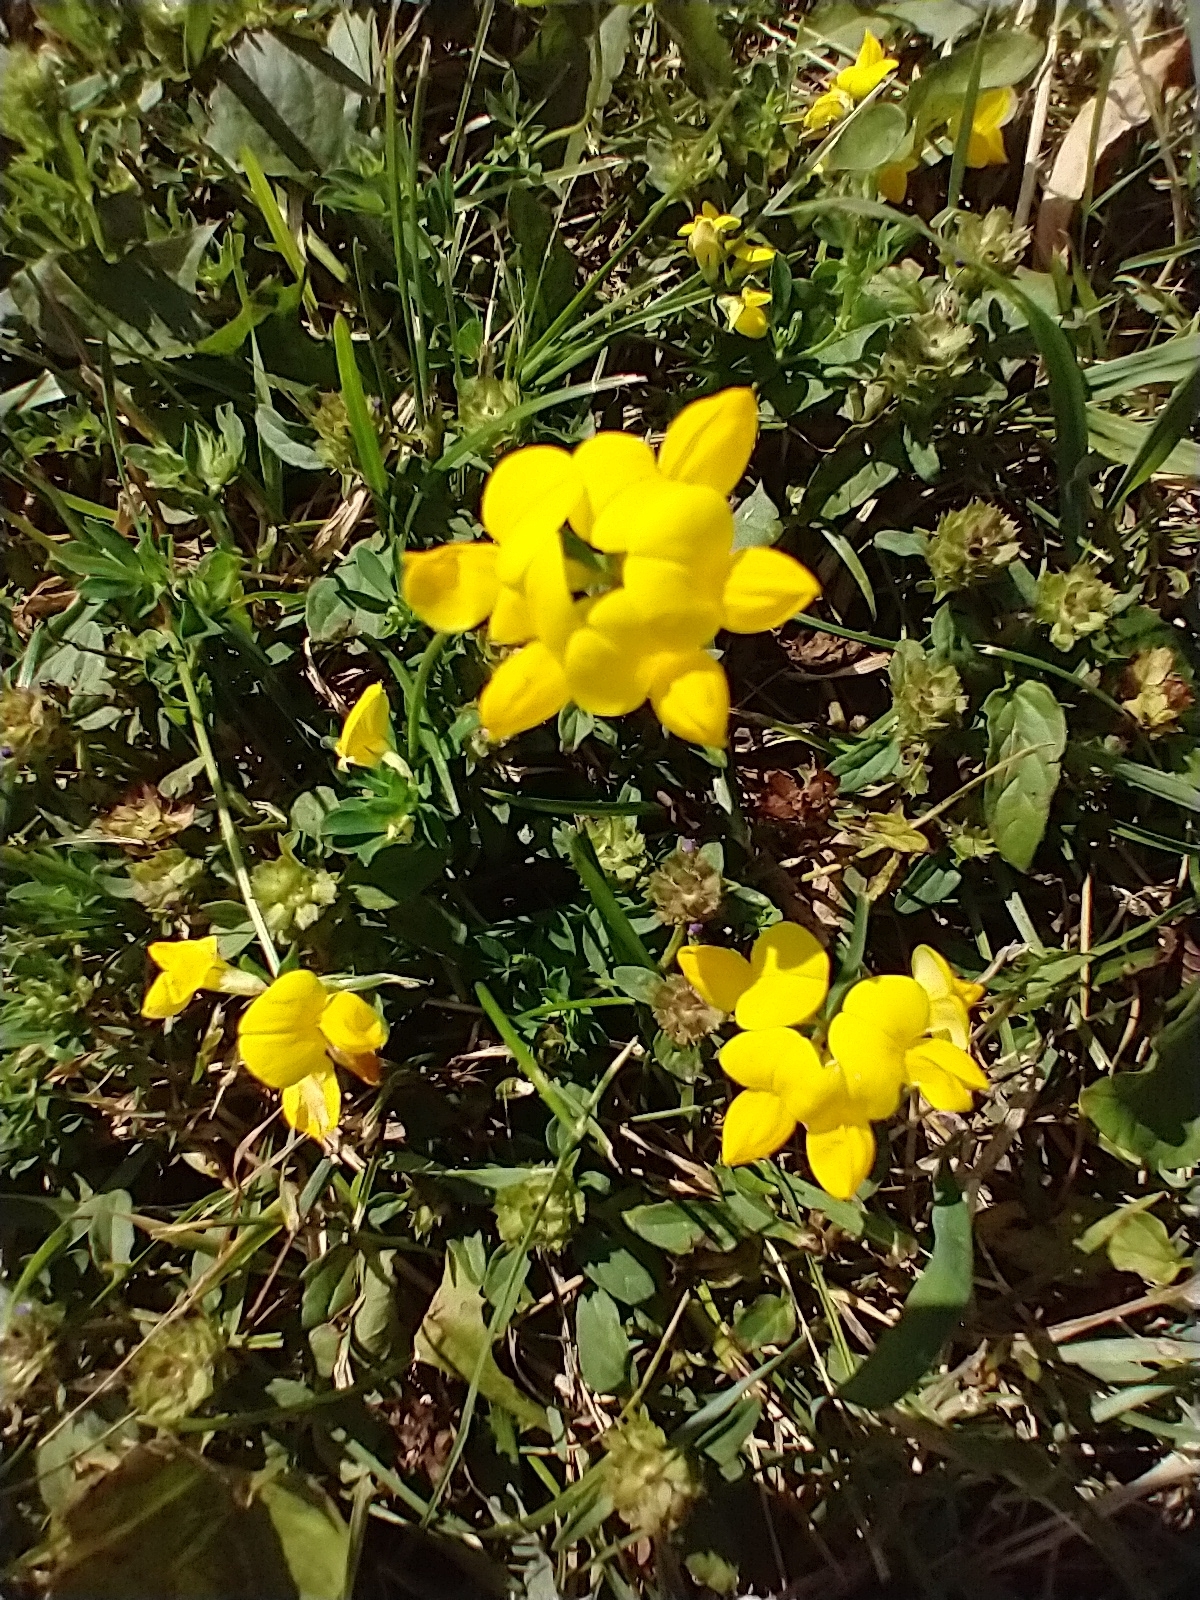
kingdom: Plantae
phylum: Tracheophyta
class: Magnoliopsida
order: Fabales
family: Fabaceae
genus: Lotus
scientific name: Lotus corniculatus
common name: Common bird's-foot-trefoil
